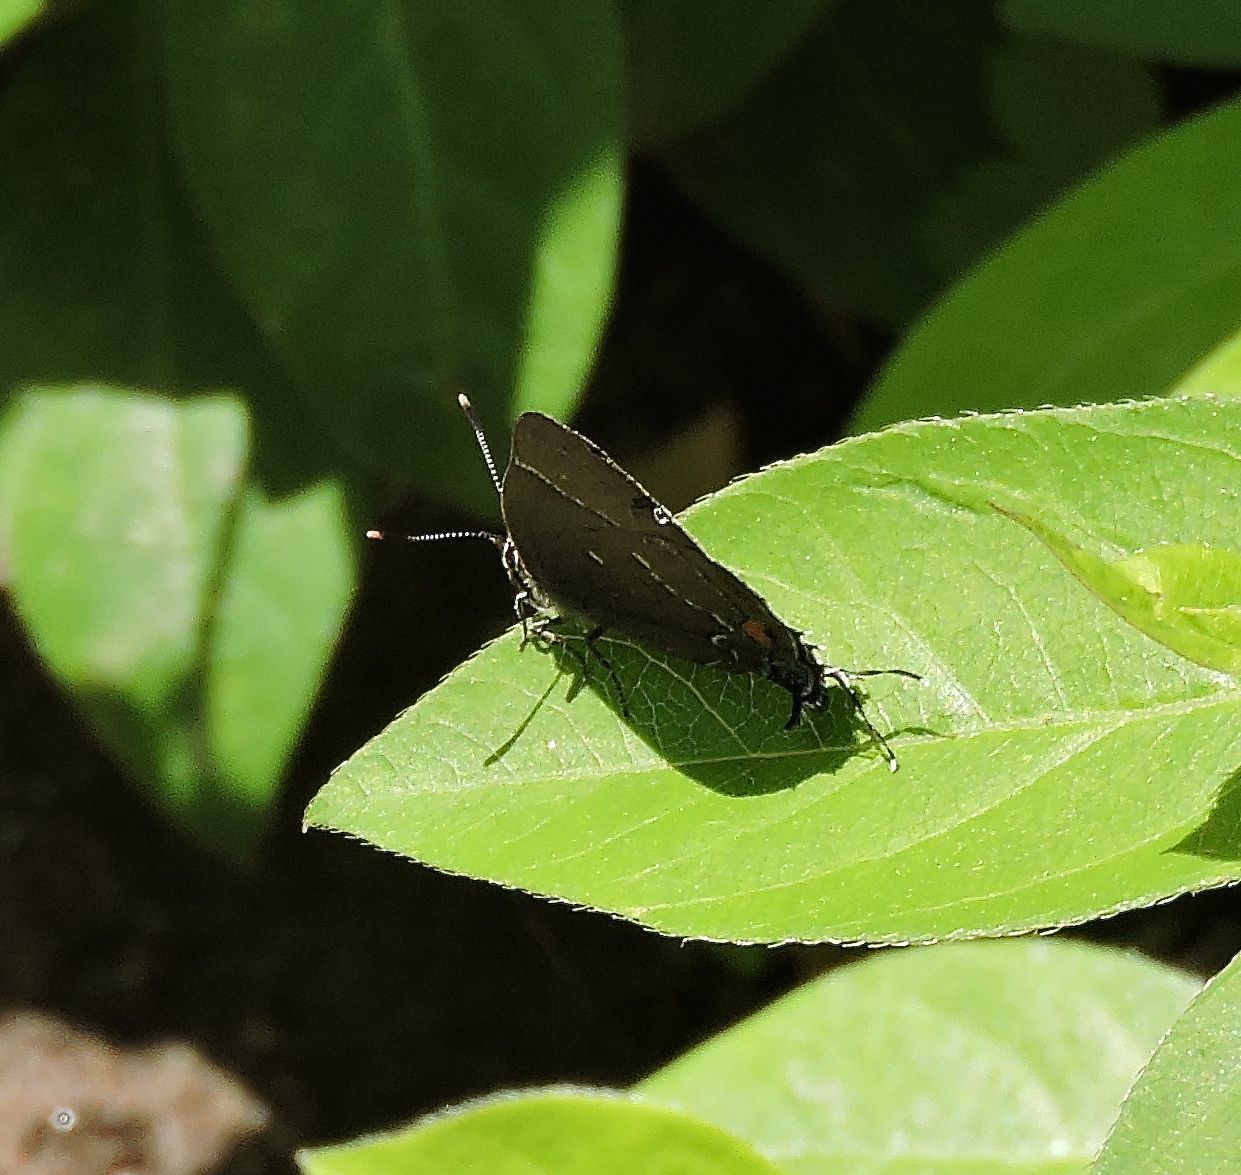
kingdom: Animalia
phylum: Arthropoda
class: Insecta
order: Lepidoptera
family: Lycaenidae
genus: Parrhasius
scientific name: Parrhasius m-album
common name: White m hairstreak
